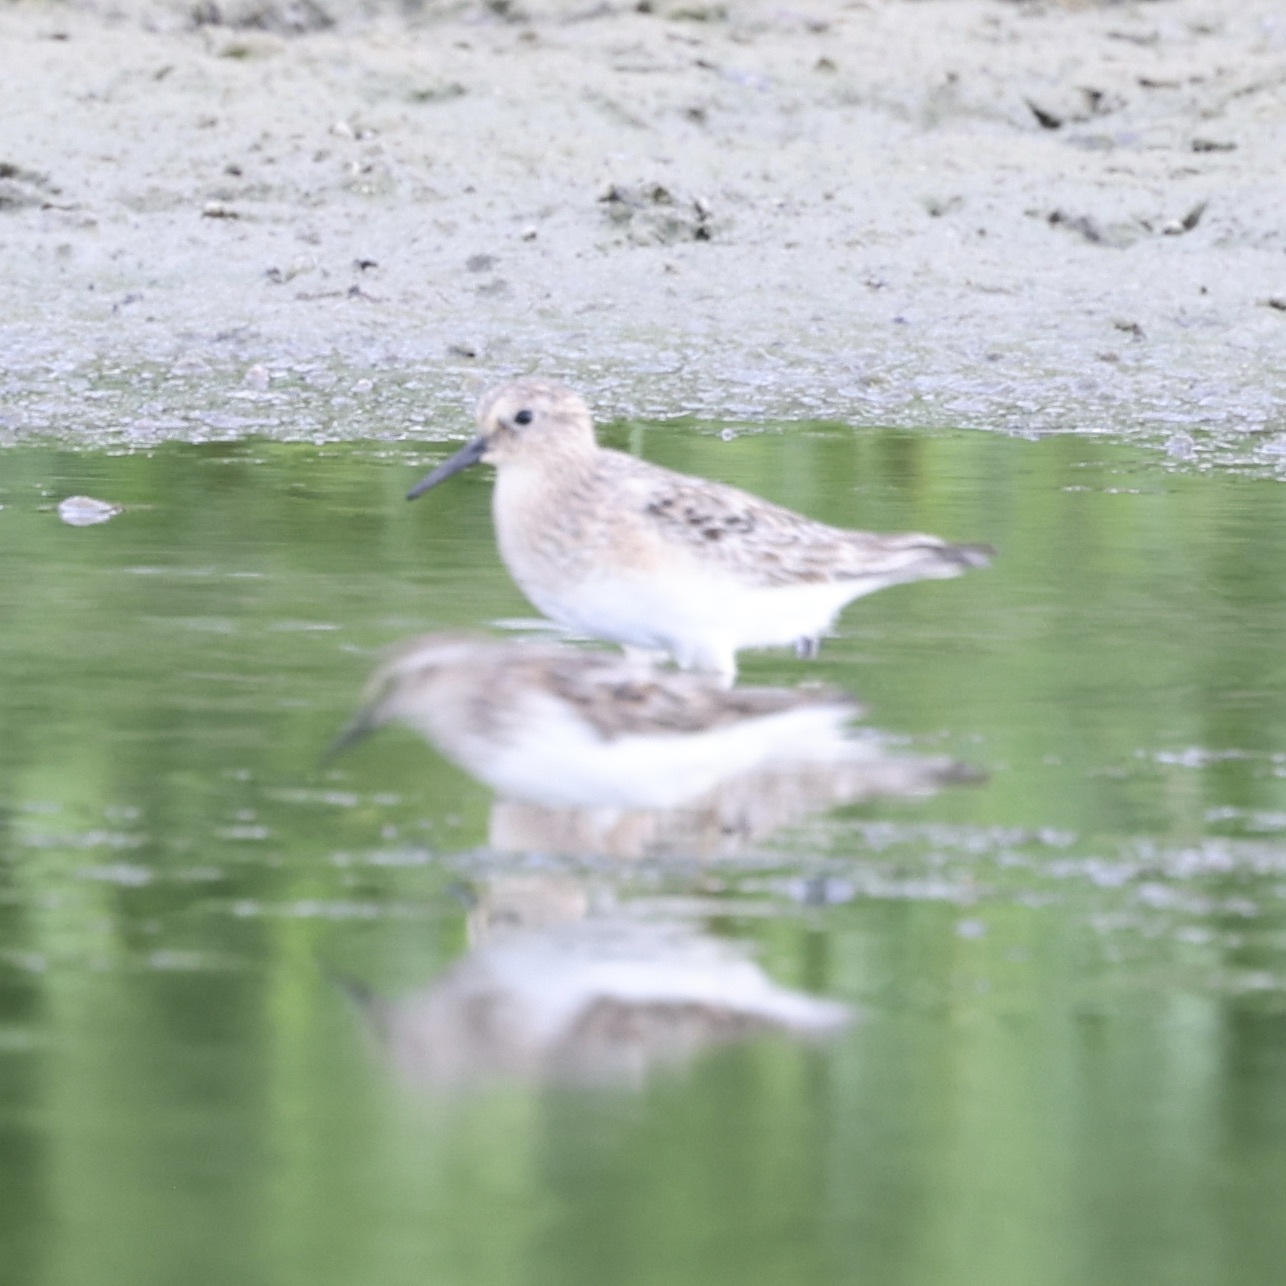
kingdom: Animalia
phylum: Chordata
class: Aves
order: Charadriiformes
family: Scolopacidae
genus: Calidris
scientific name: Calidris bairdii
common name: Baird's sandpiper
